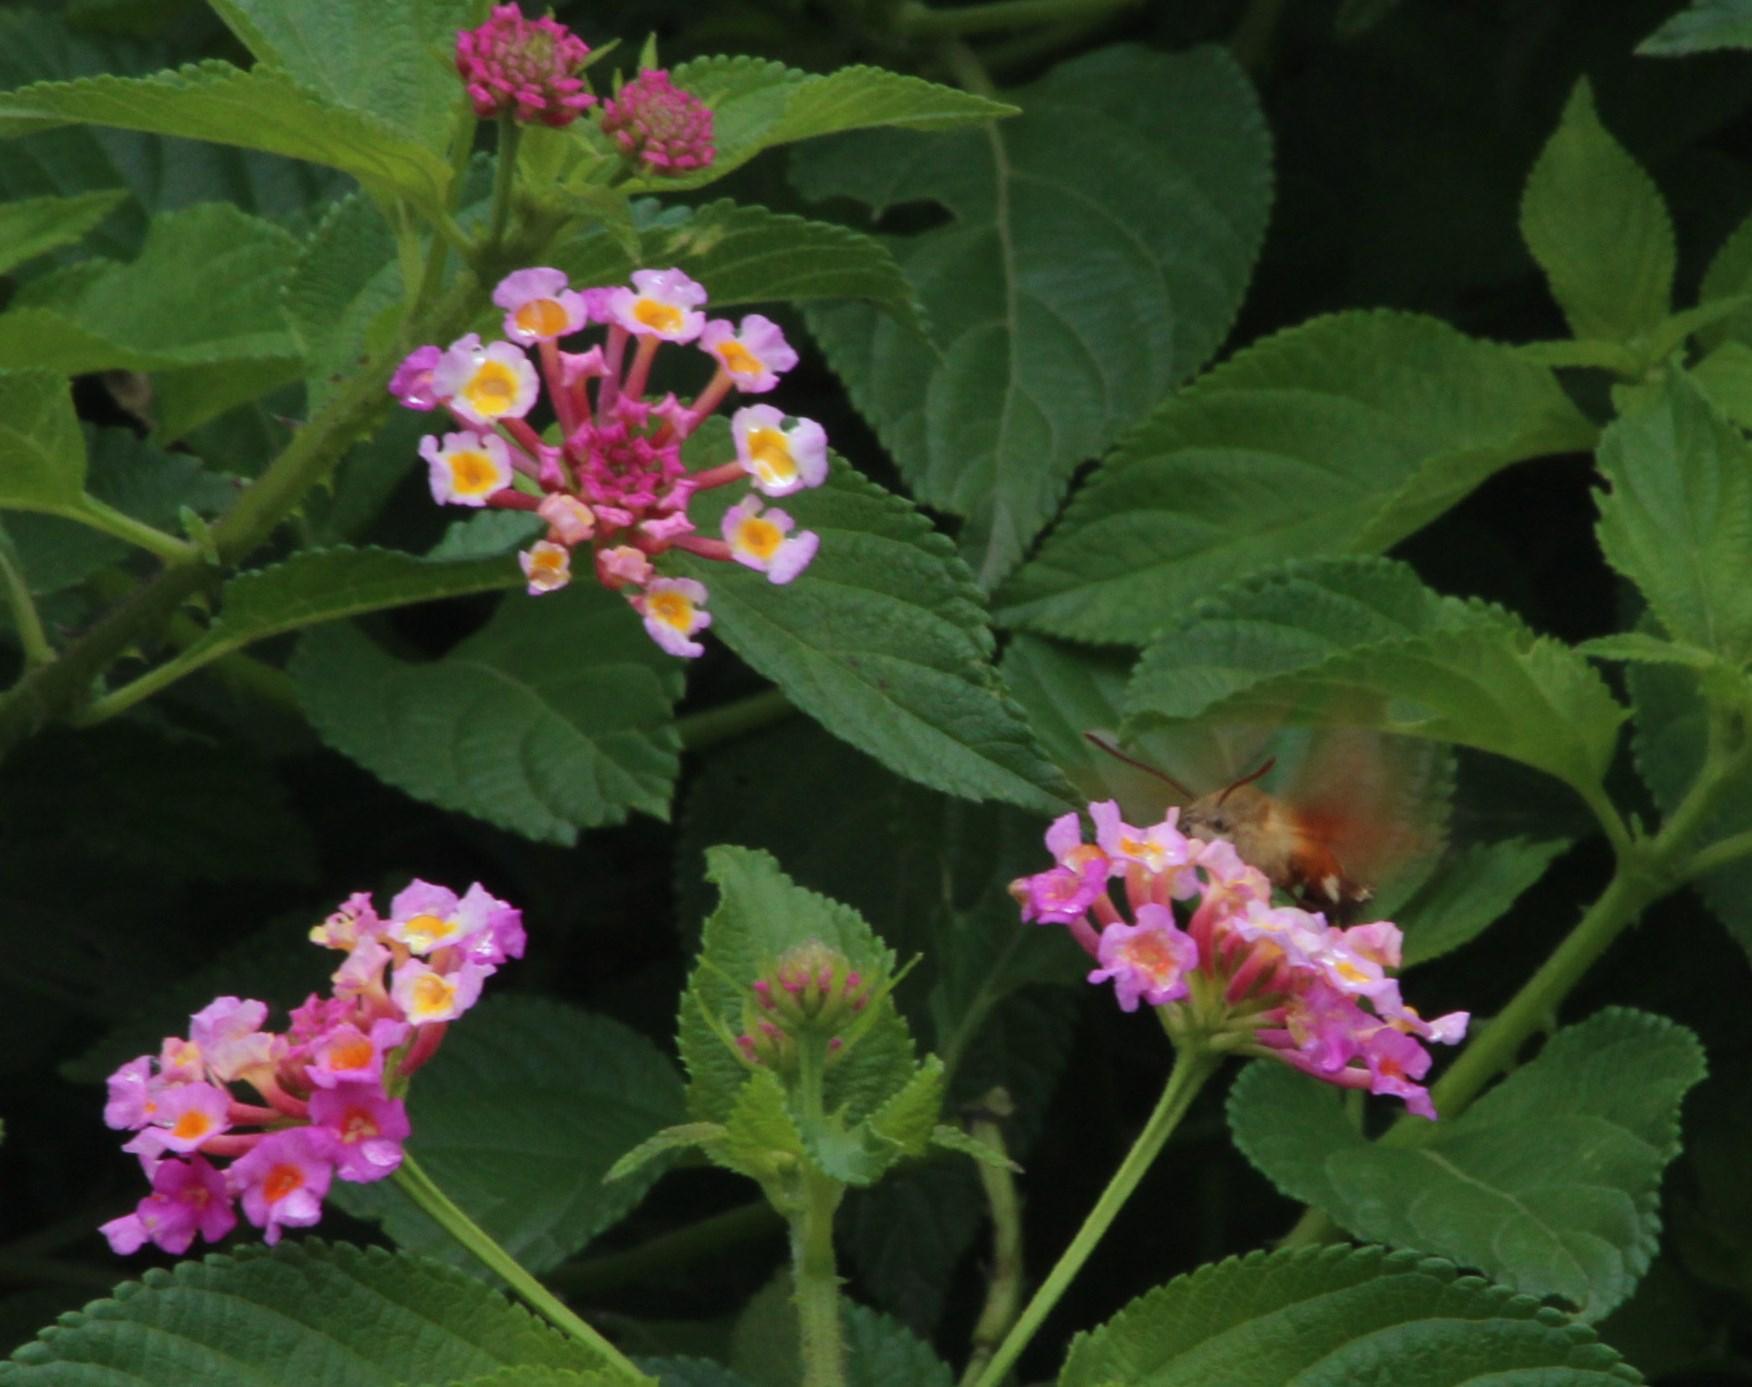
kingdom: Animalia
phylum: Arthropoda
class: Insecta
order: Lepidoptera
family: Sphingidae
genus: Macroglossum
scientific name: Macroglossum trochilus
